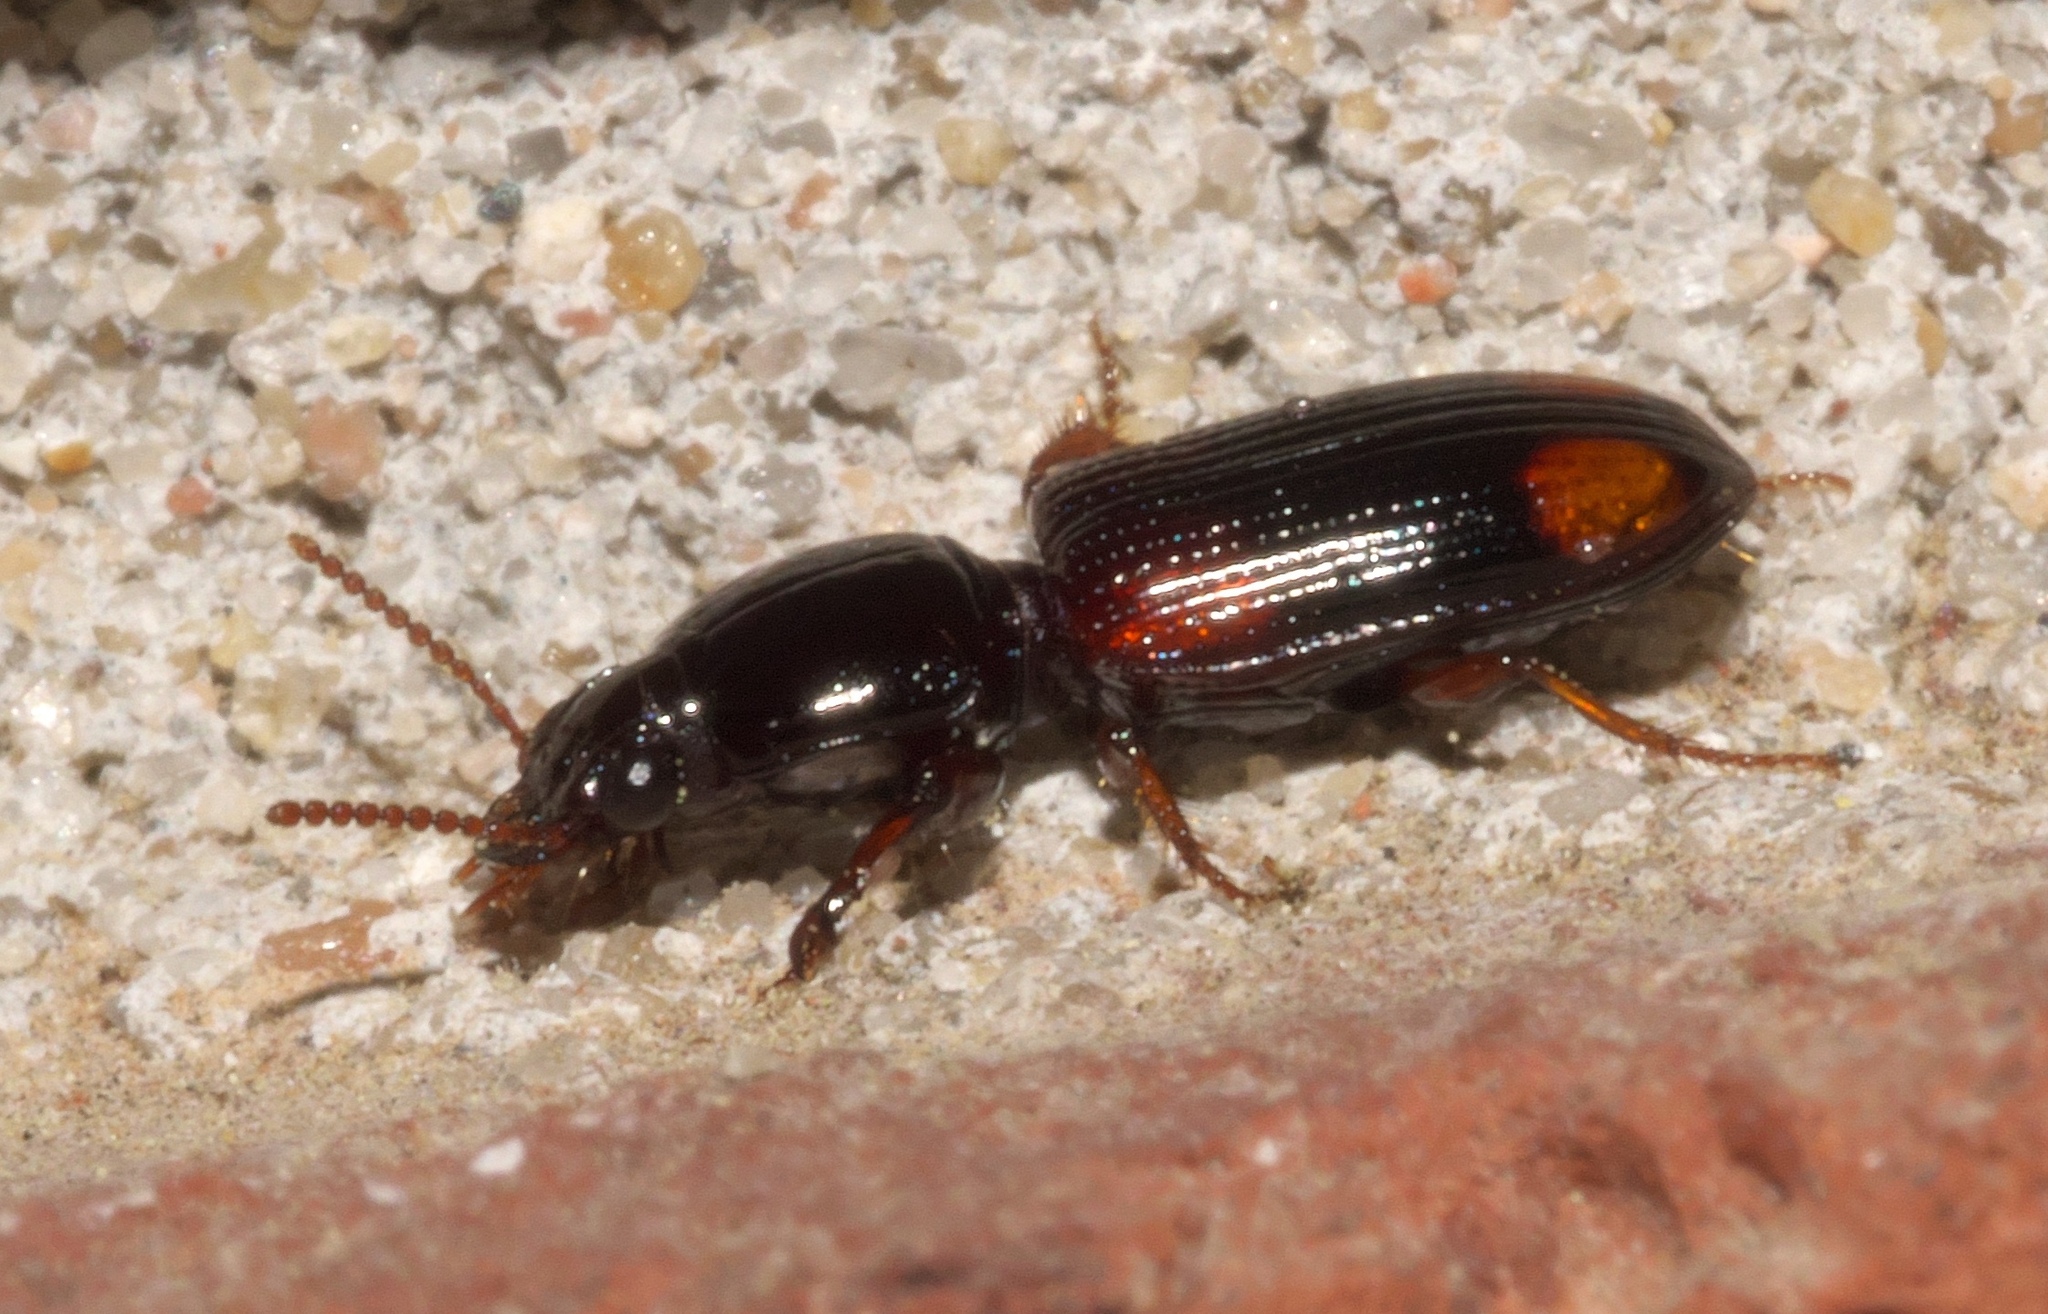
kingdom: Animalia
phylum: Arthropoda
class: Insecta
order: Coleoptera
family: Carabidae
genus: Clivina
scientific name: Clivina bipustulata
